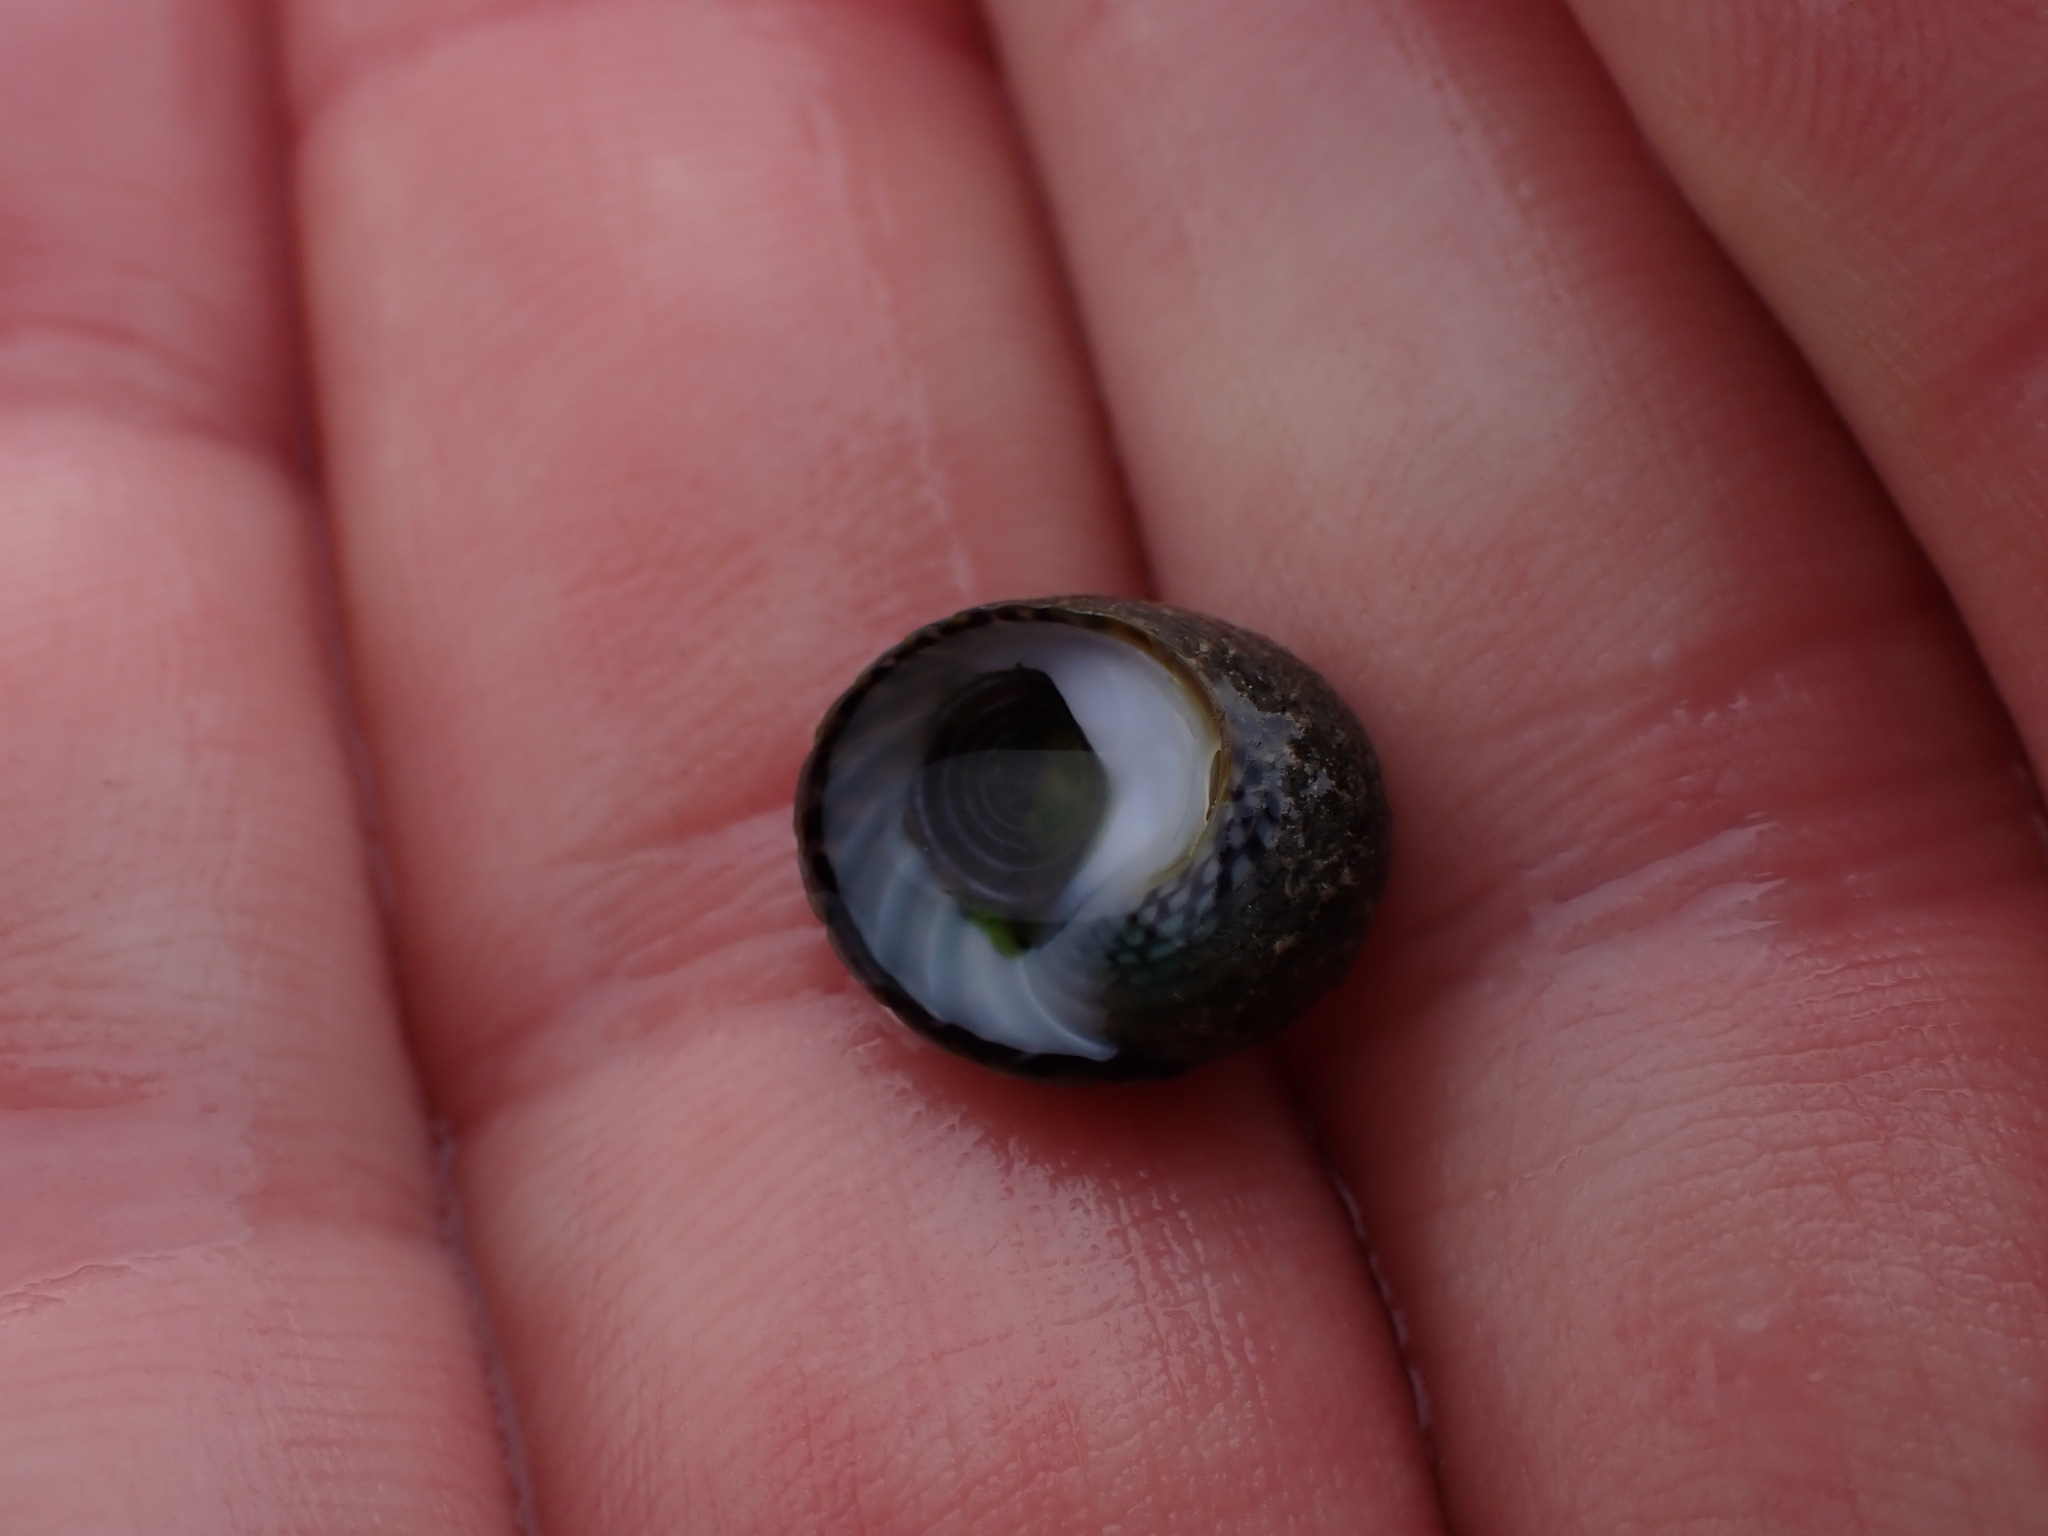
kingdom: Animalia
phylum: Mollusca
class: Gastropoda
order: Trochida
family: Trochidae
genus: Diloma
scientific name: Diloma aethiops
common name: Scorched monodont
